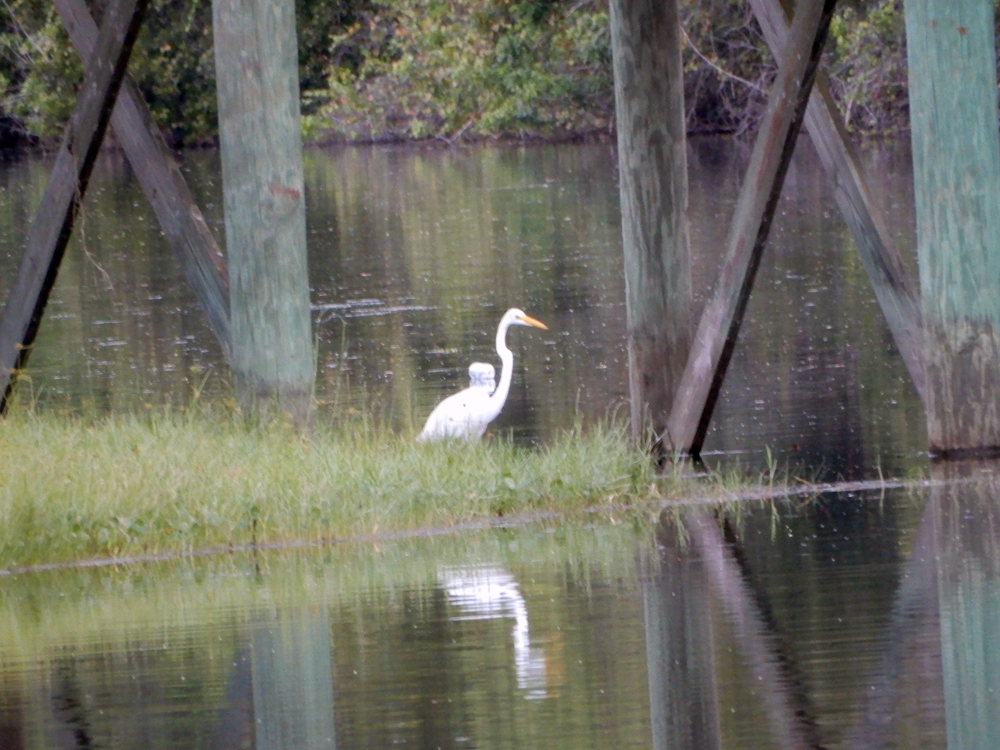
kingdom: Animalia
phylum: Chordata
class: Aves
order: Pelecaniformes
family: Ardeidae
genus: Ardea
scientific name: Ardea alba
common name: Great egret
